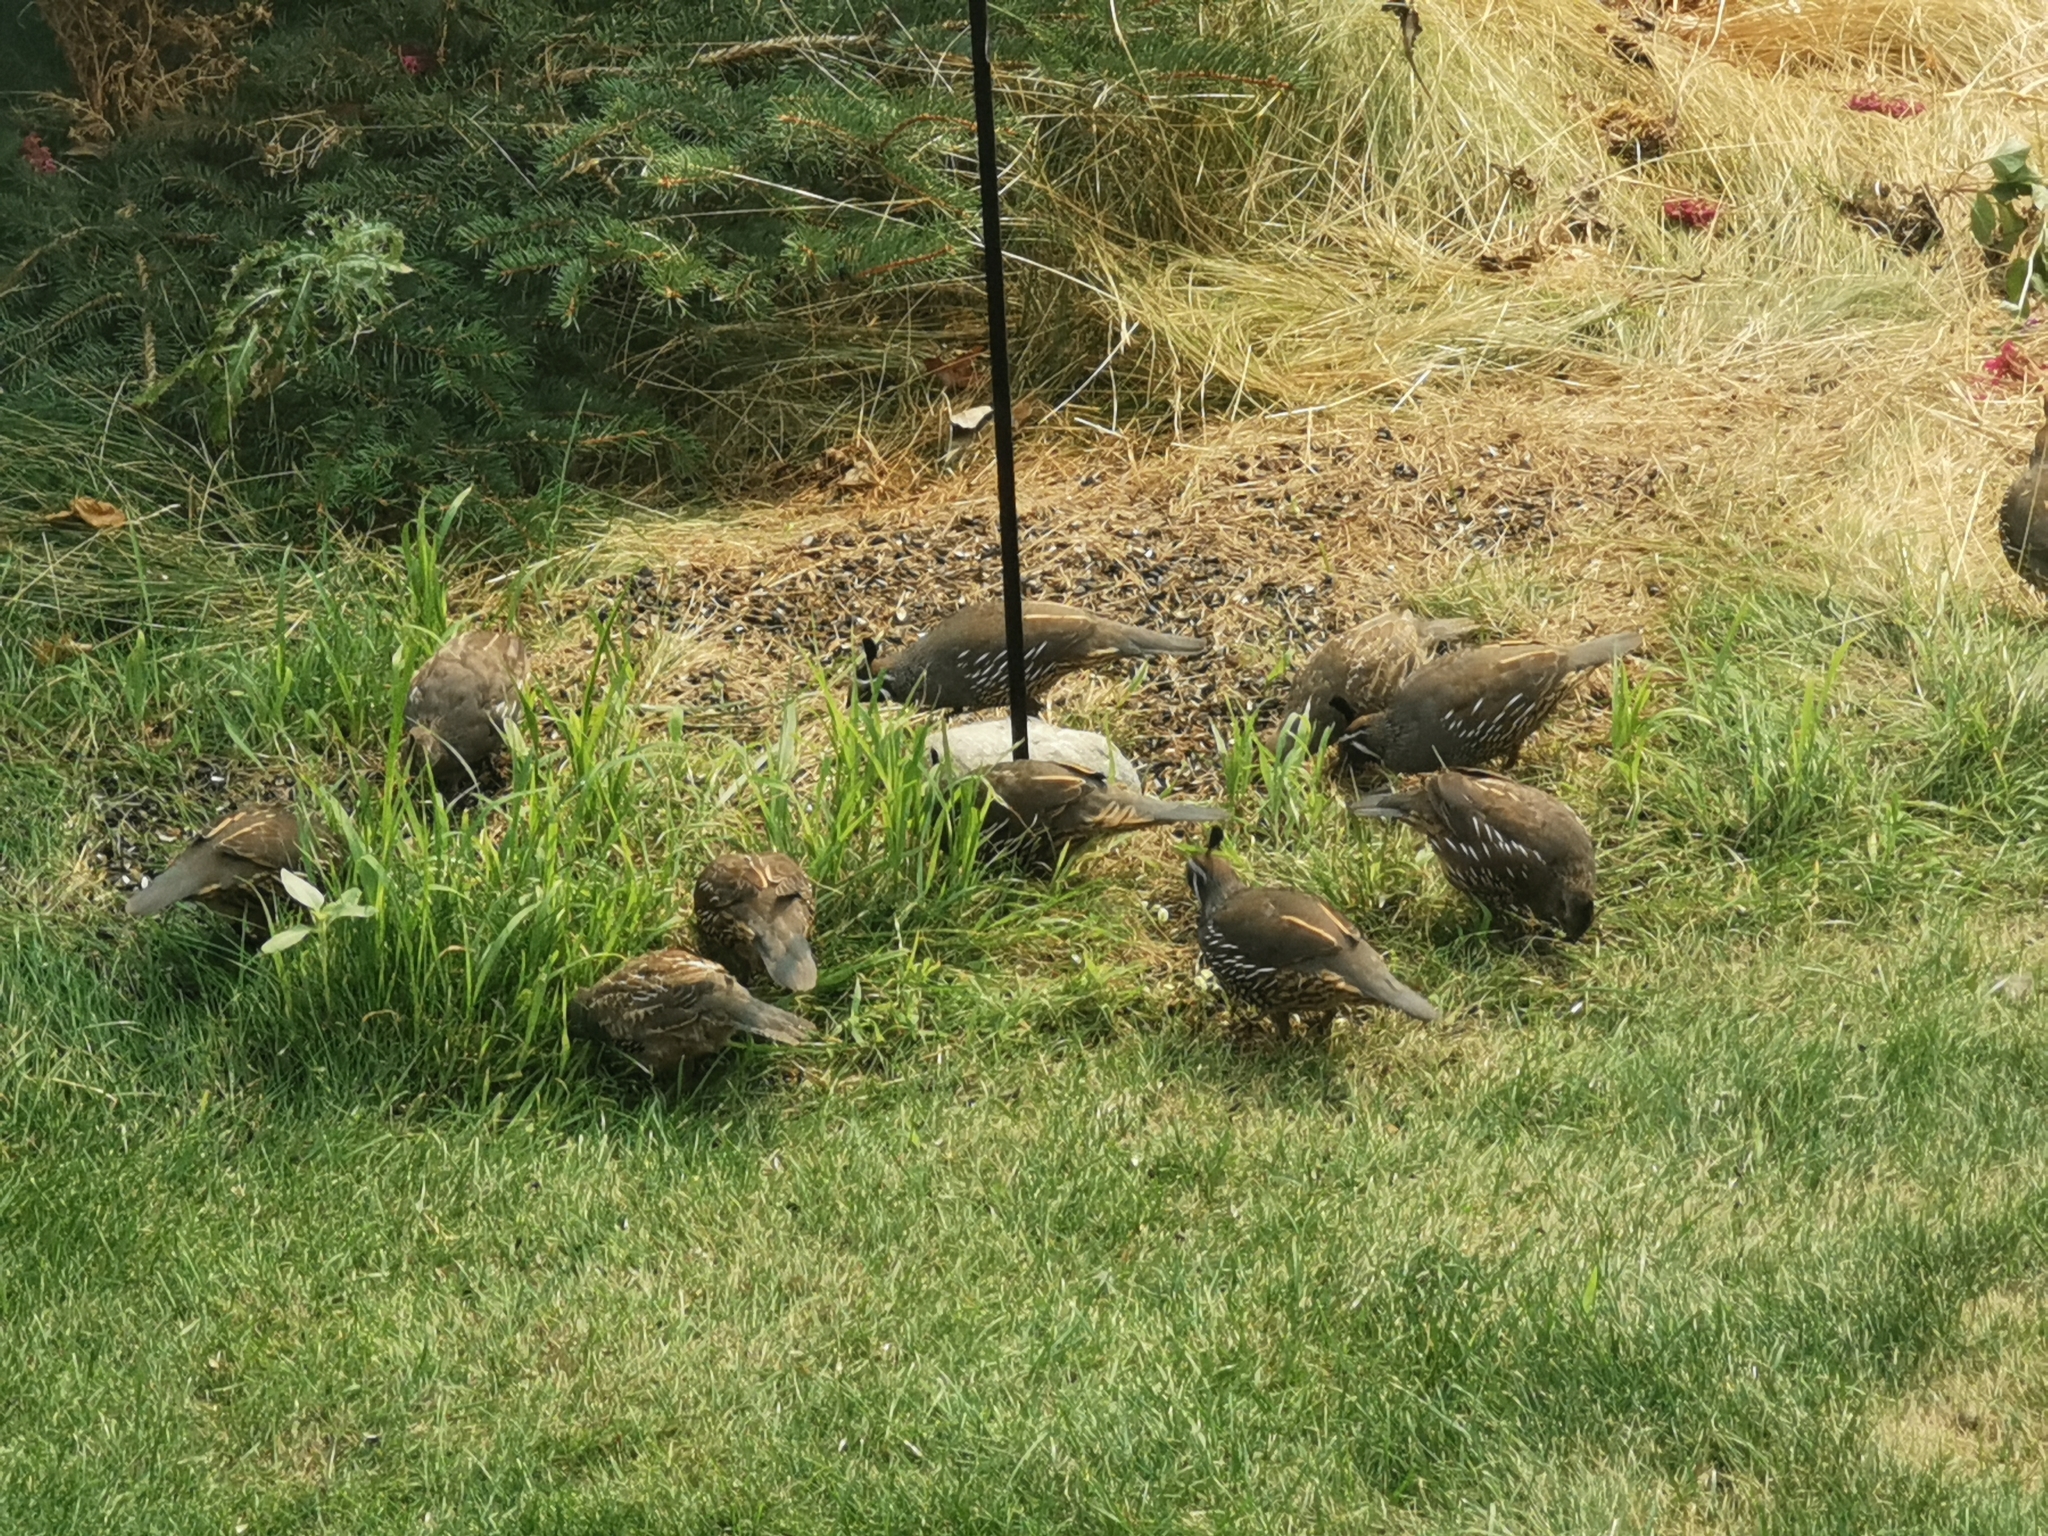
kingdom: Animalia
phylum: Chordata
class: Aves
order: Galliformes
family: Odontophoridae
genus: Callipepla
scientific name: Callipepla californica
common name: California quail
